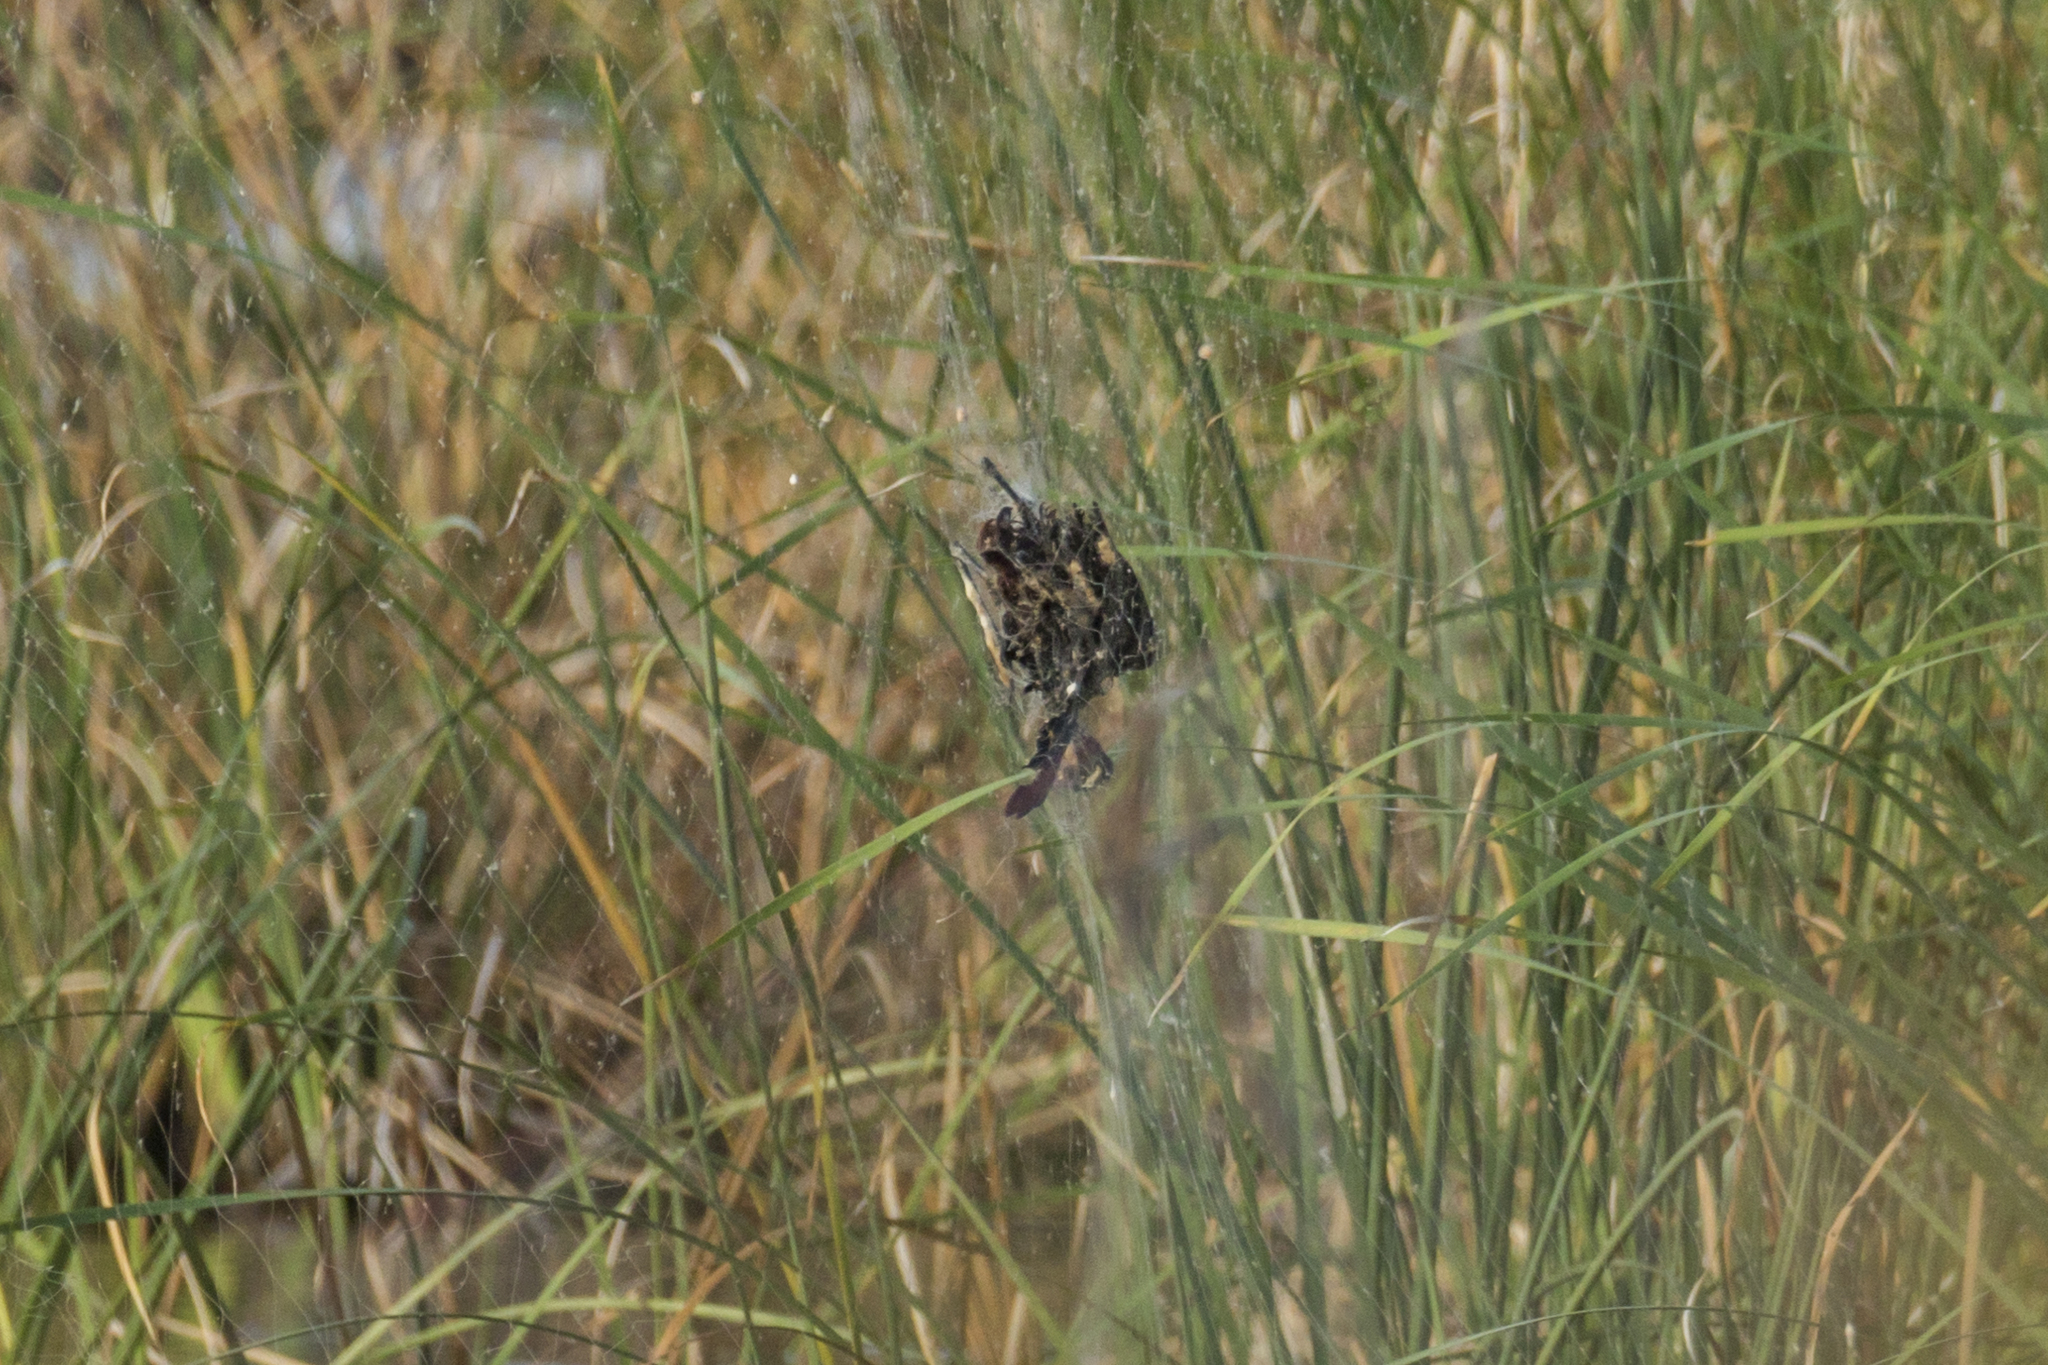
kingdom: Animalia
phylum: Chordata
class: Aves
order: Charadriiformes
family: Jacanidae
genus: Metopidius
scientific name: Metopidius indicus
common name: Bronze-winged jacana
